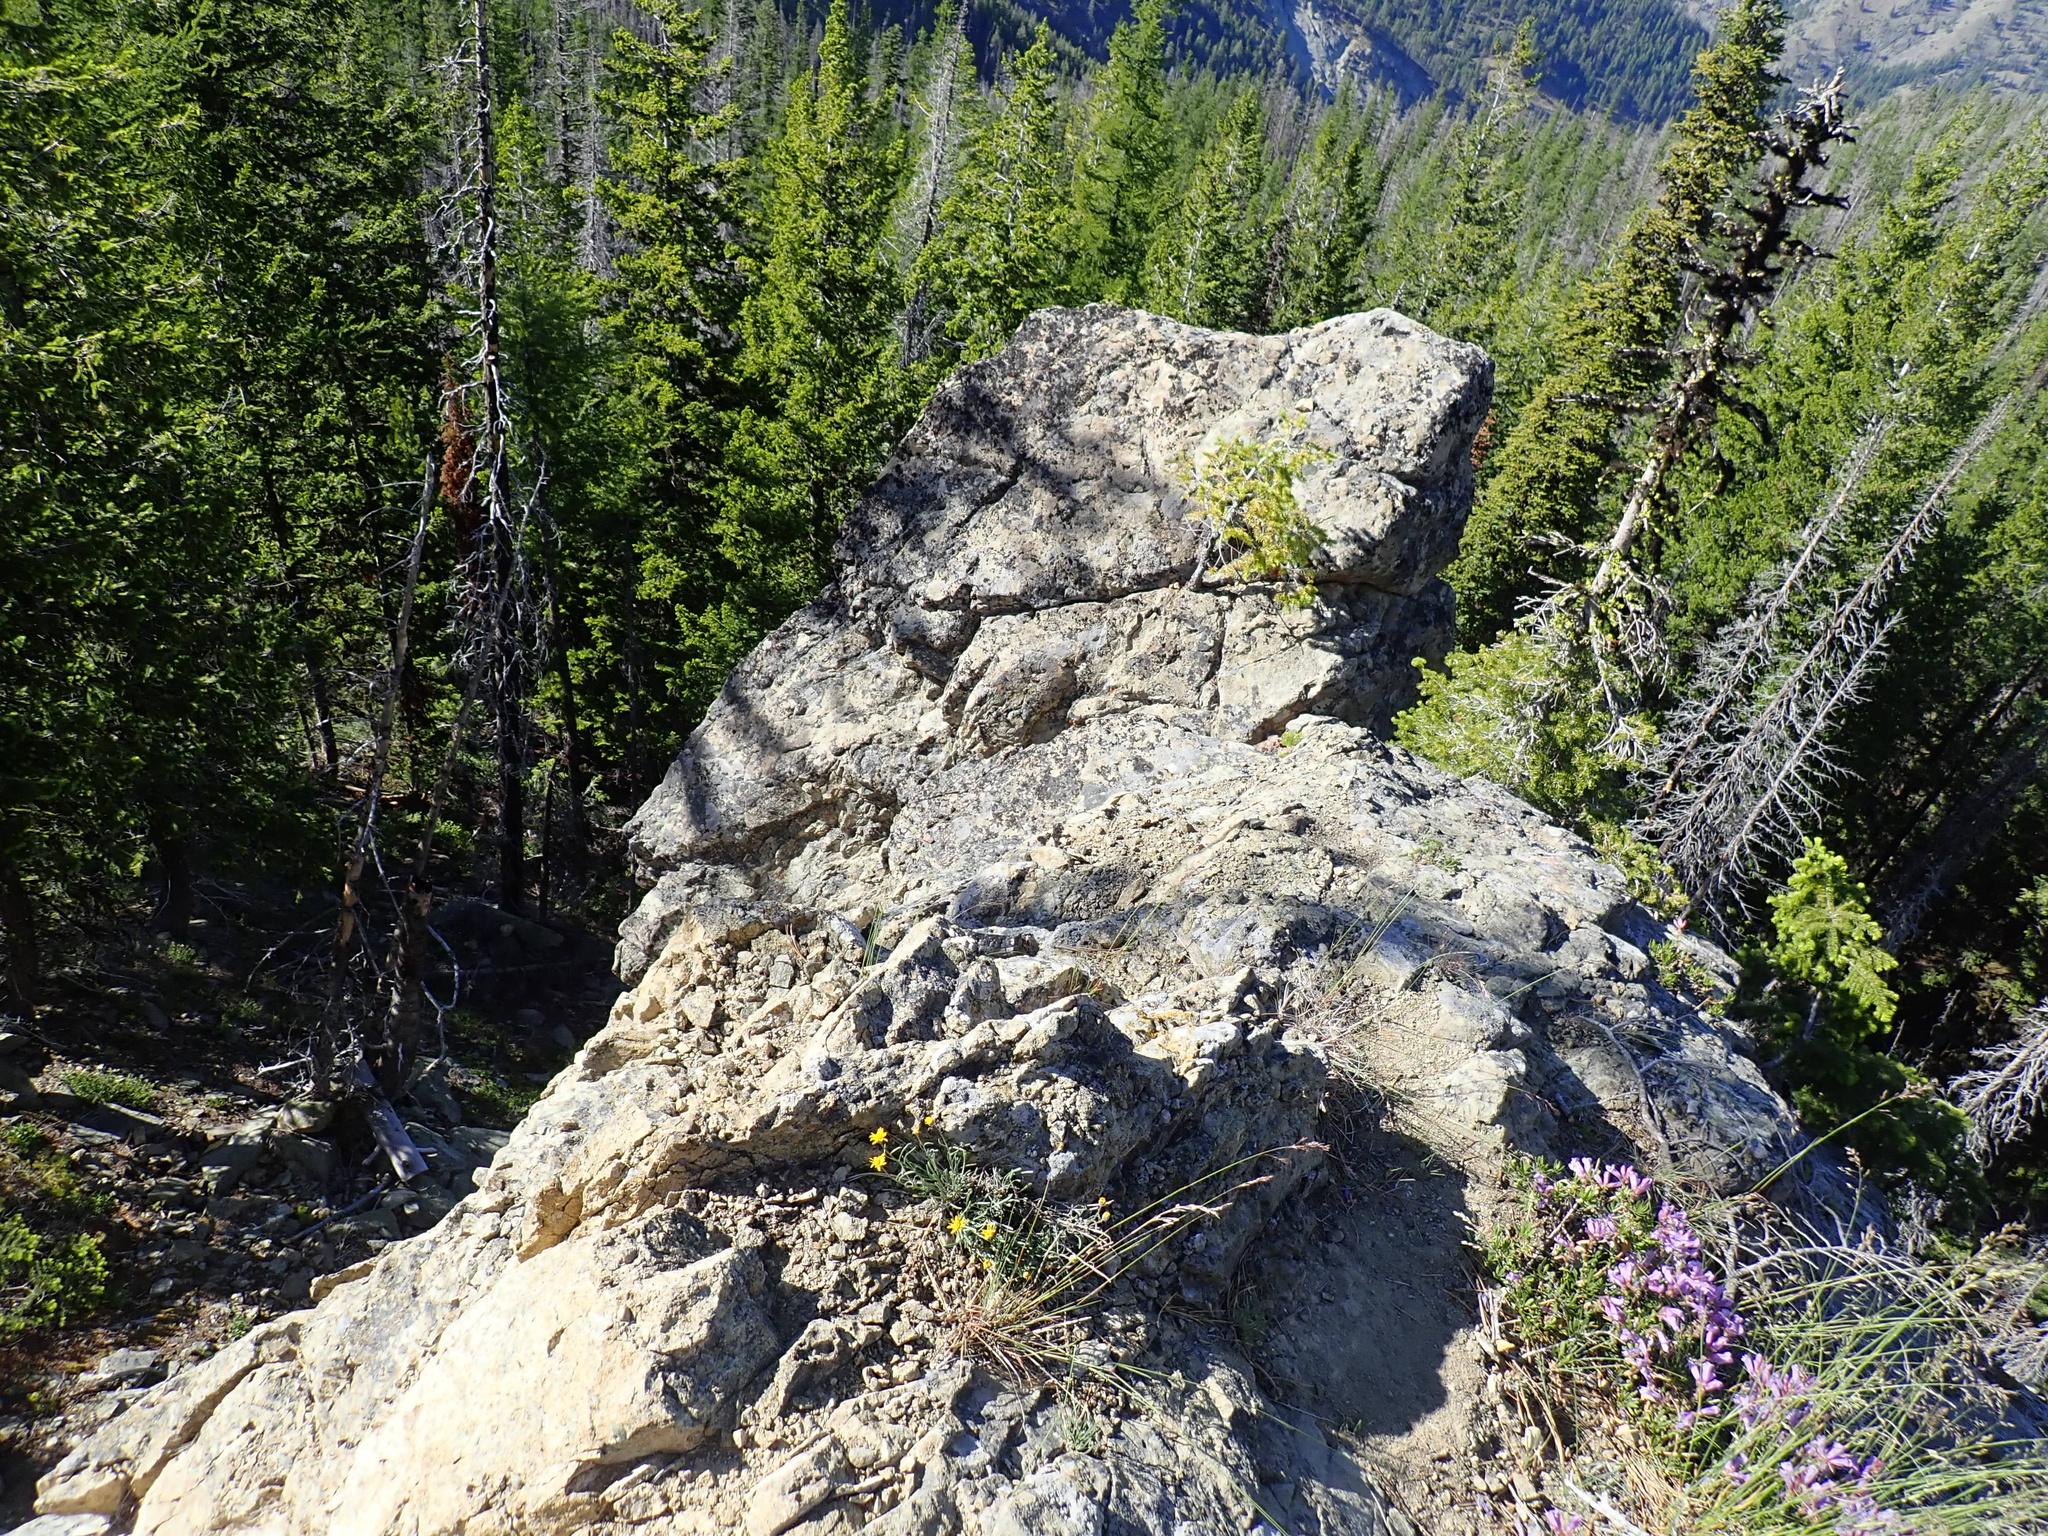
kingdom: Plantae
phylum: Tracheophyta
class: Magnoliopsida
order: Asterales
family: Asteraceae
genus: Erigeron
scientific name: Erigeron linearis
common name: Desert yellow fleabane
